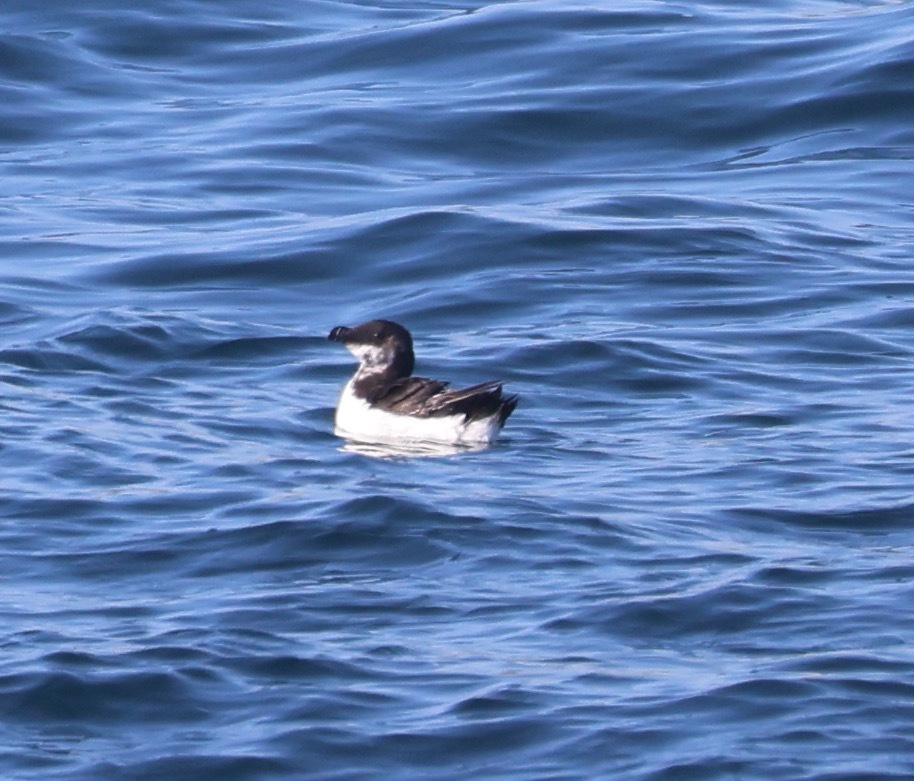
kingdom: Animalia
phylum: Chordata
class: Aves
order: Charadriiformes
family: Alcidae
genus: Alca
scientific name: Alca torda
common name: Razorbill
